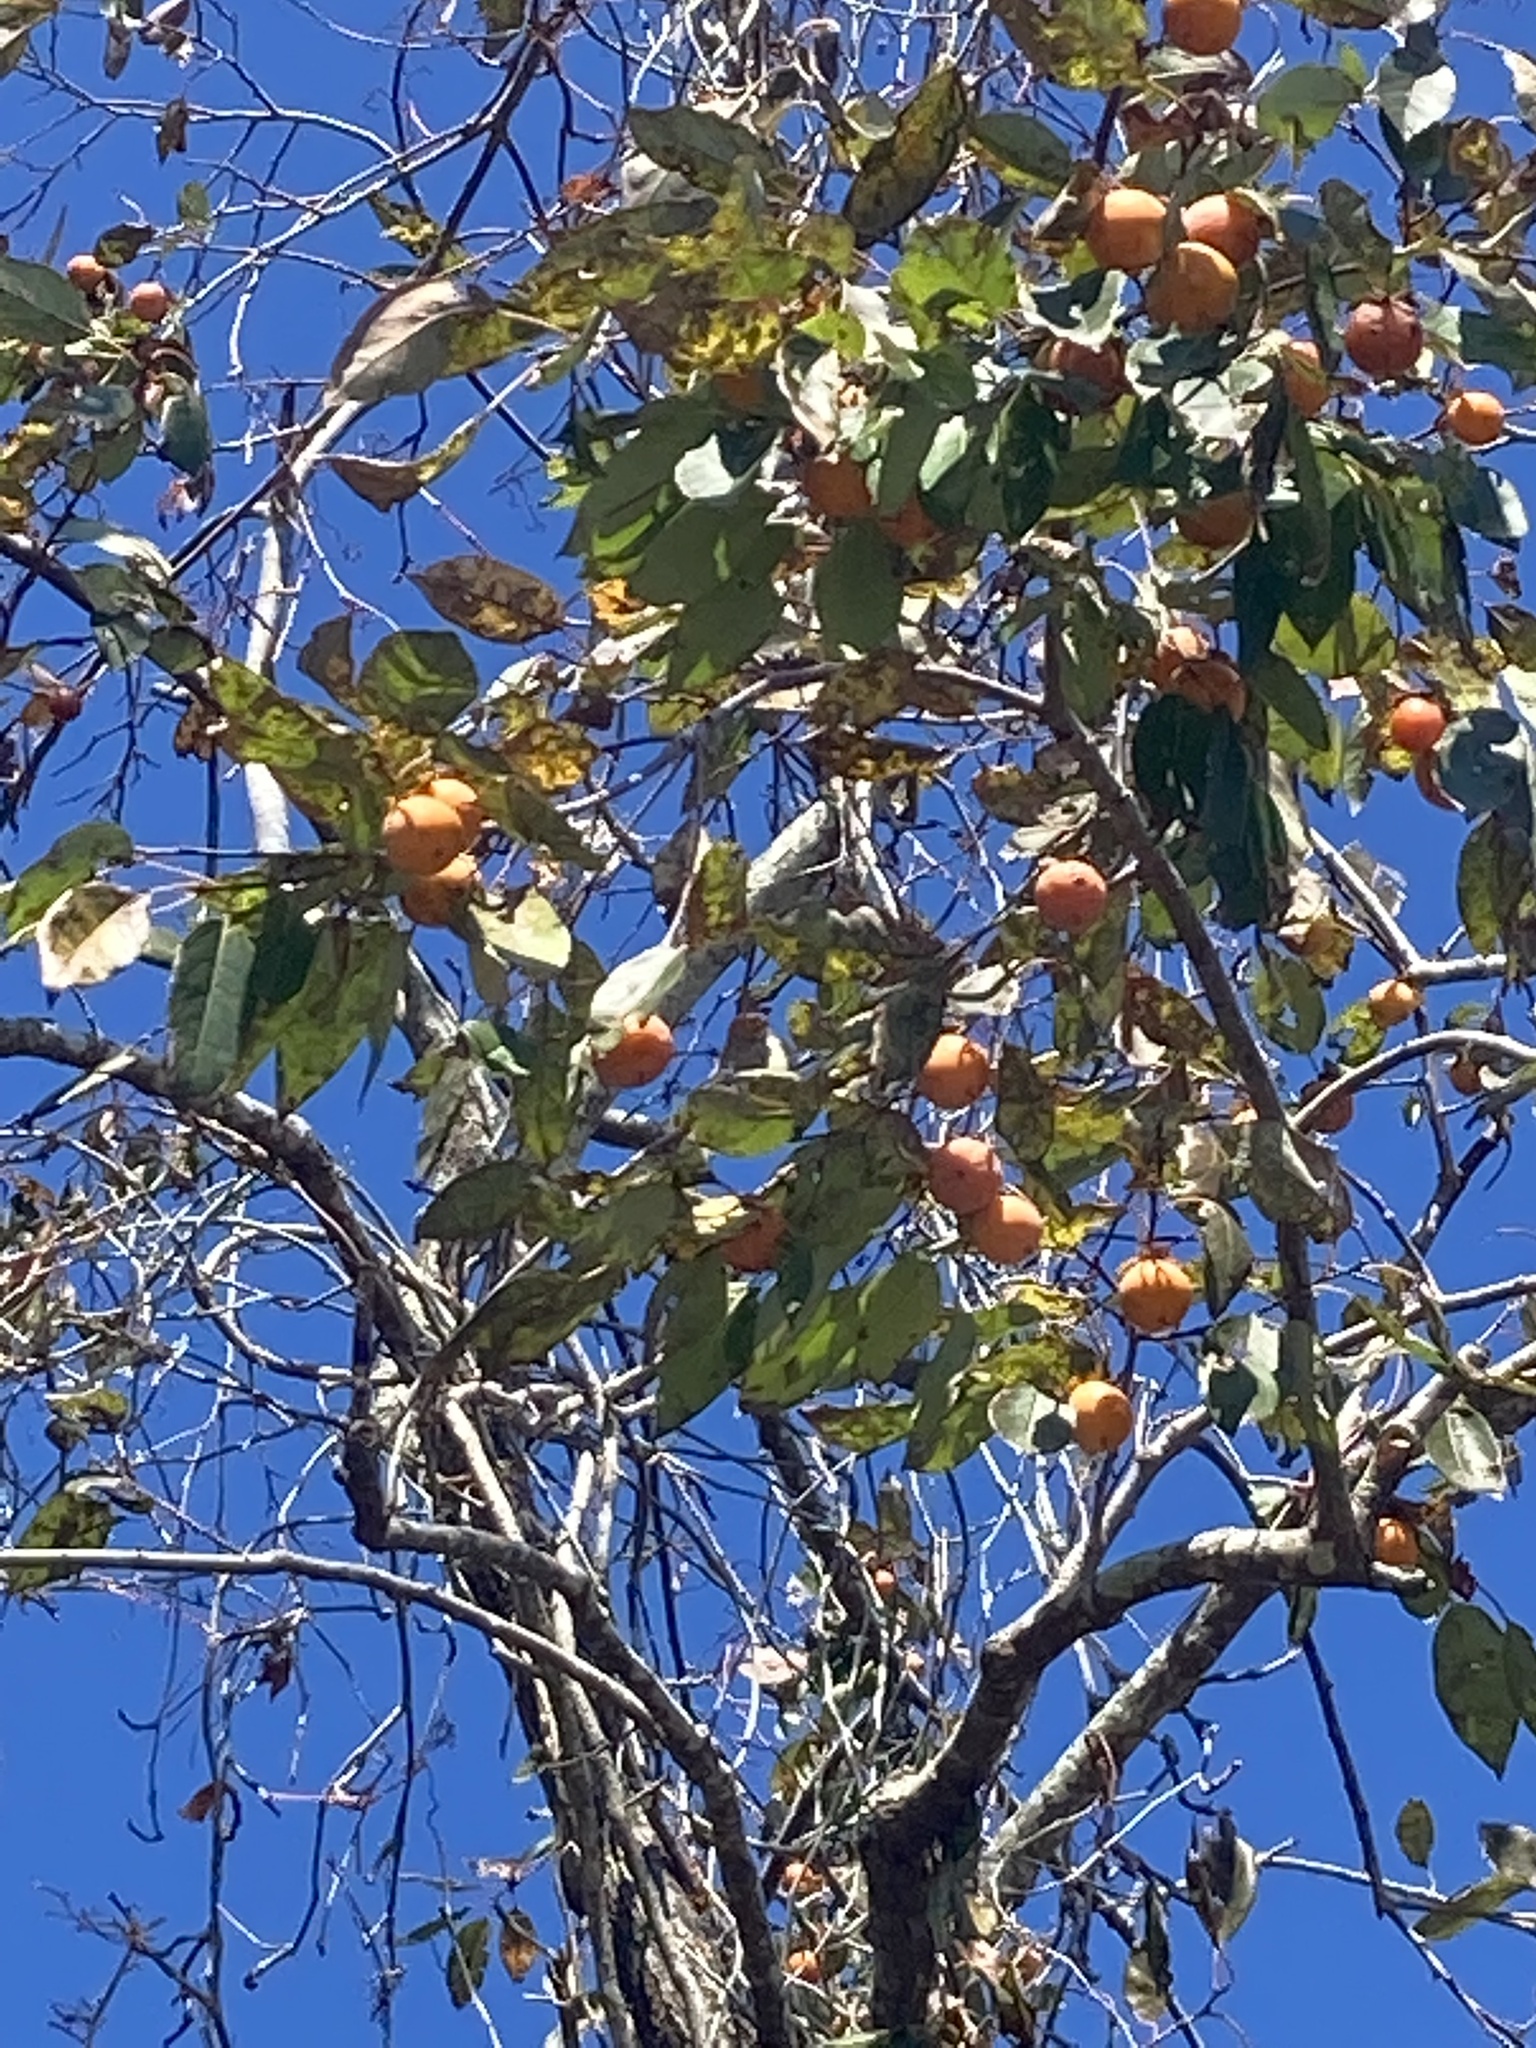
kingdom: Plantae
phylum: Tracheophyta
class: Magnoliopsida
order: Ericales
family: Ebenaceae
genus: Diospyros
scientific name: Diospyros virginiana
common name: Persimmon
